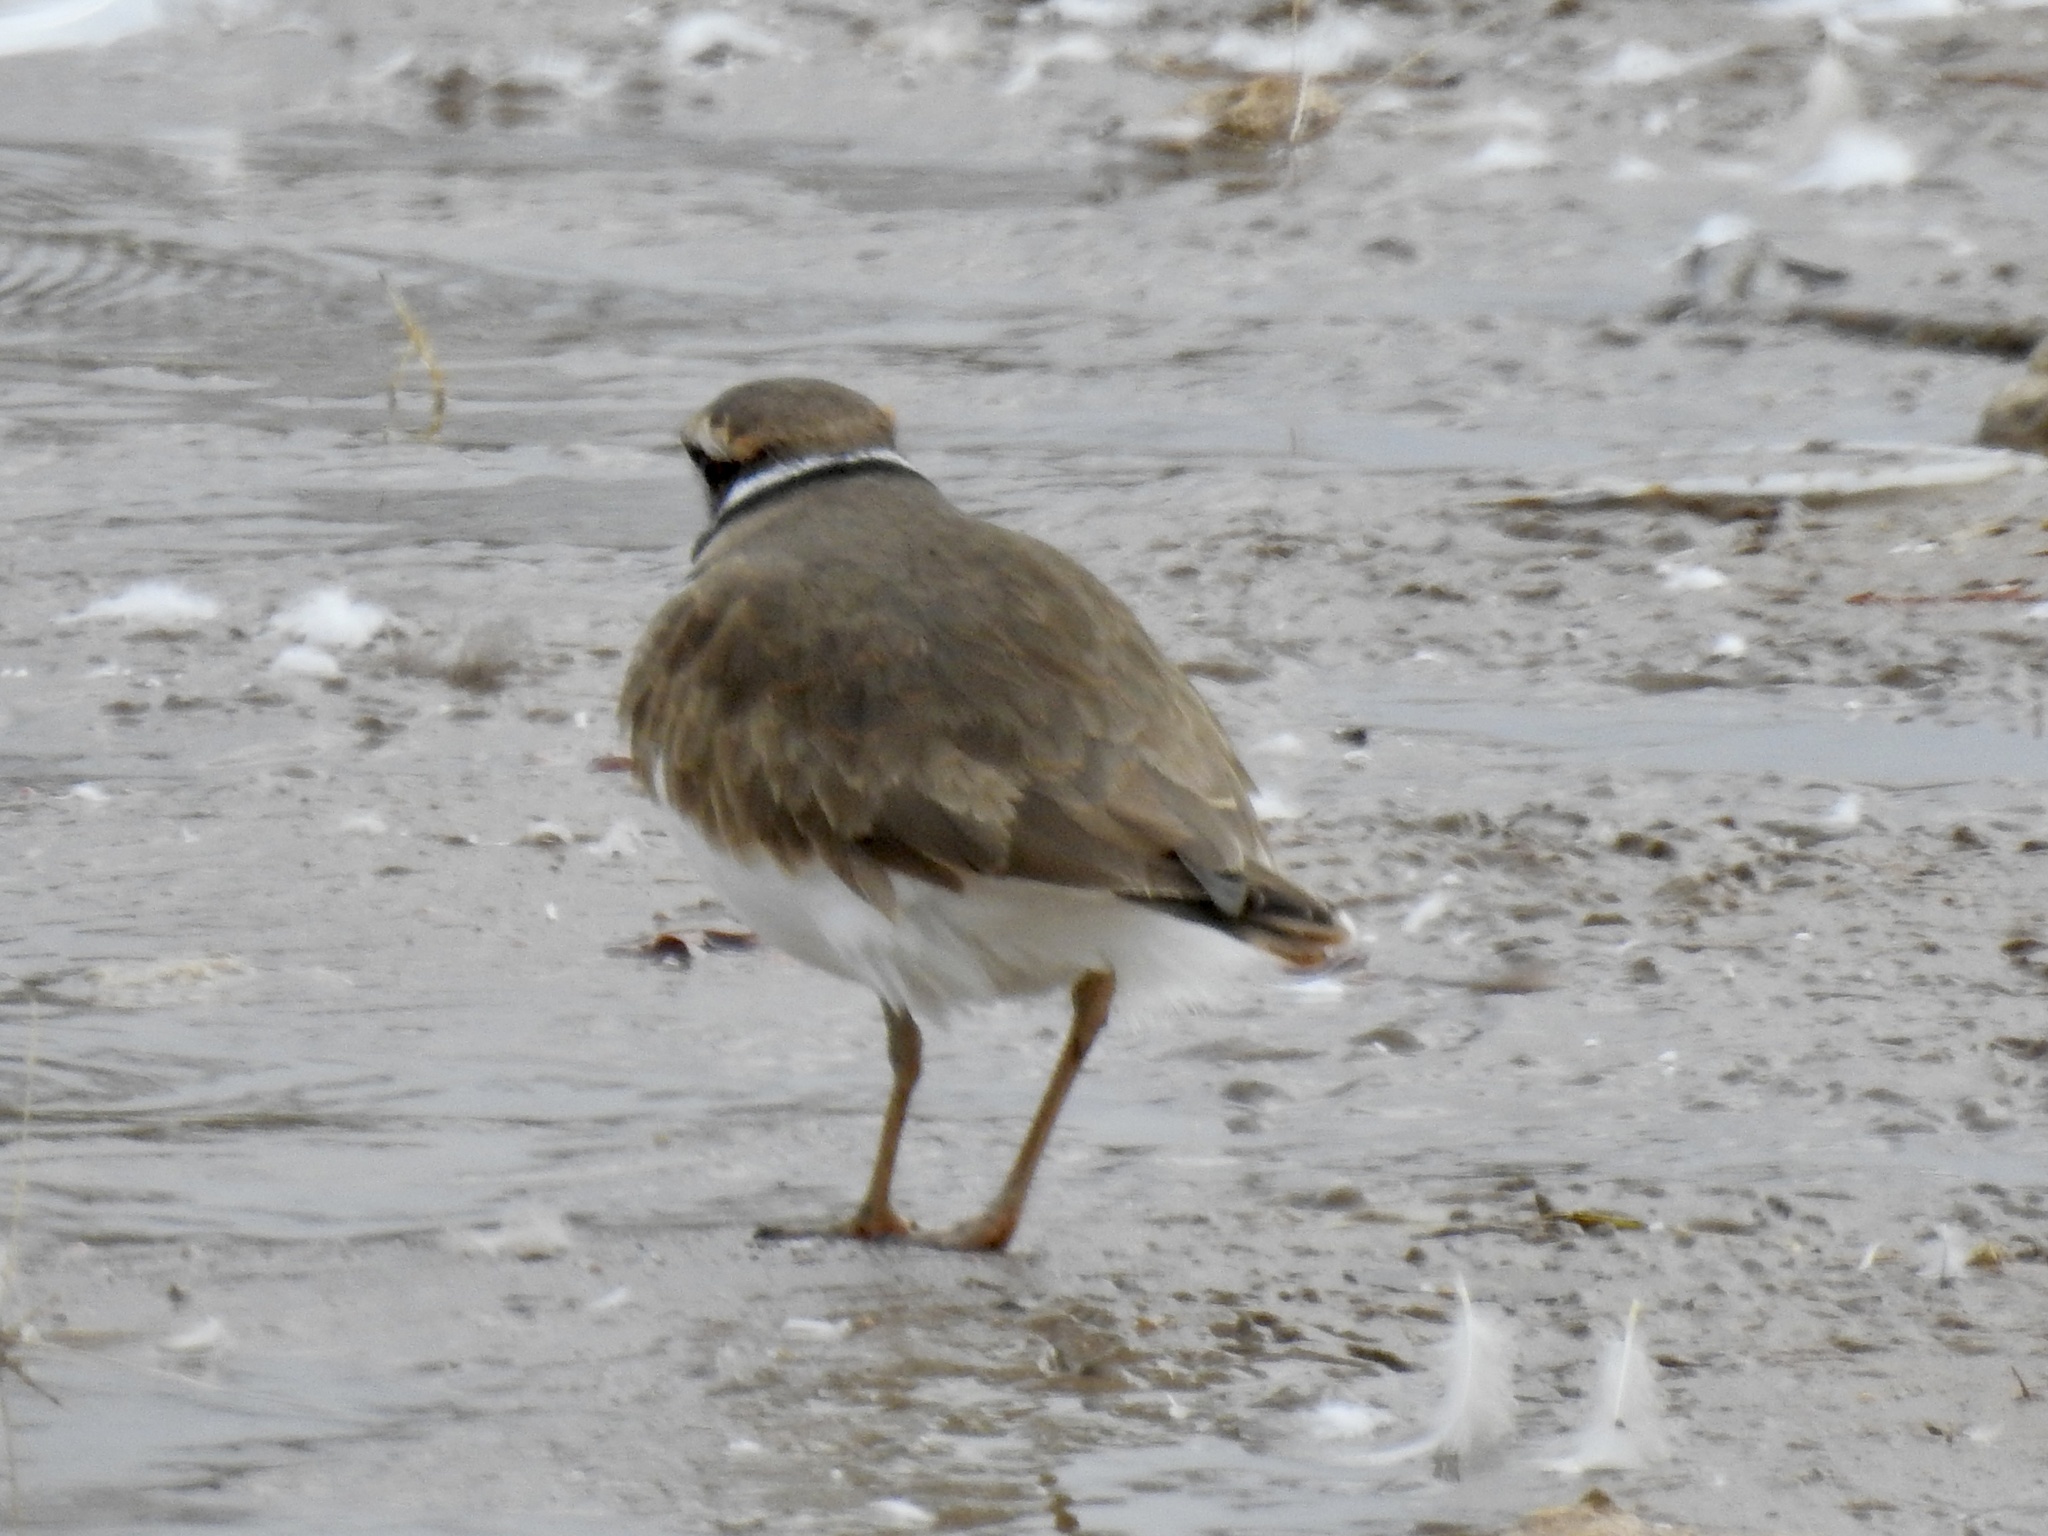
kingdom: Animalia
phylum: Chordata
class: Aves
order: Charadriiformes
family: Charadriidae
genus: Charadrius
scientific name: Charadrius vociferus
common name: Killdeer
